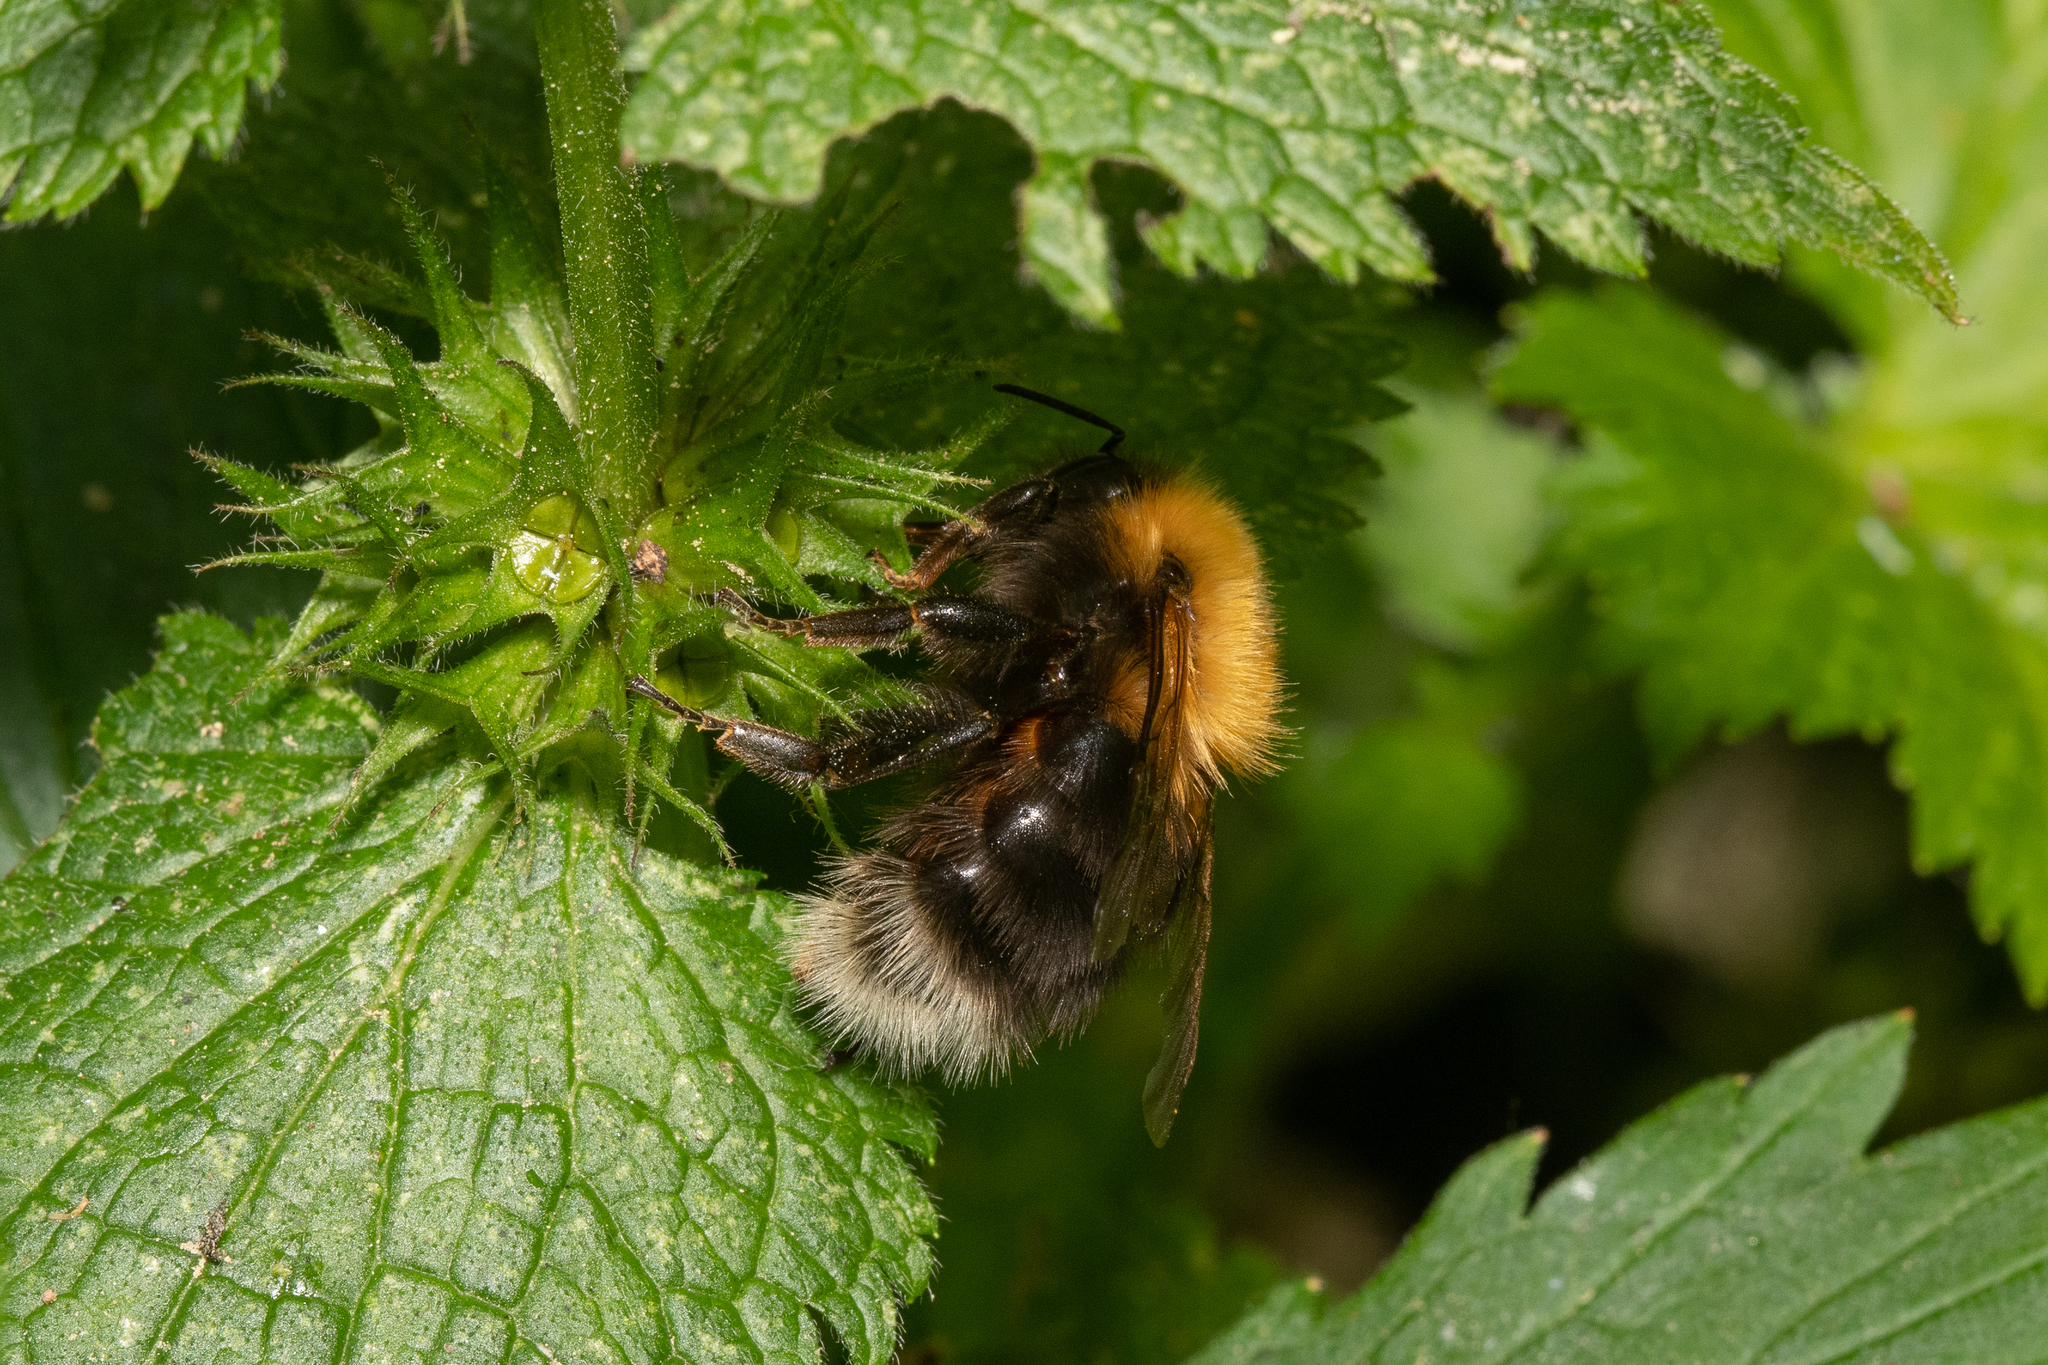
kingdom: Animalia
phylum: Arthropoda
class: Insecta
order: Hymenoptera
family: Apidae
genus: Bombus
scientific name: Bombus hypnorum
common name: New garden bumblebee
